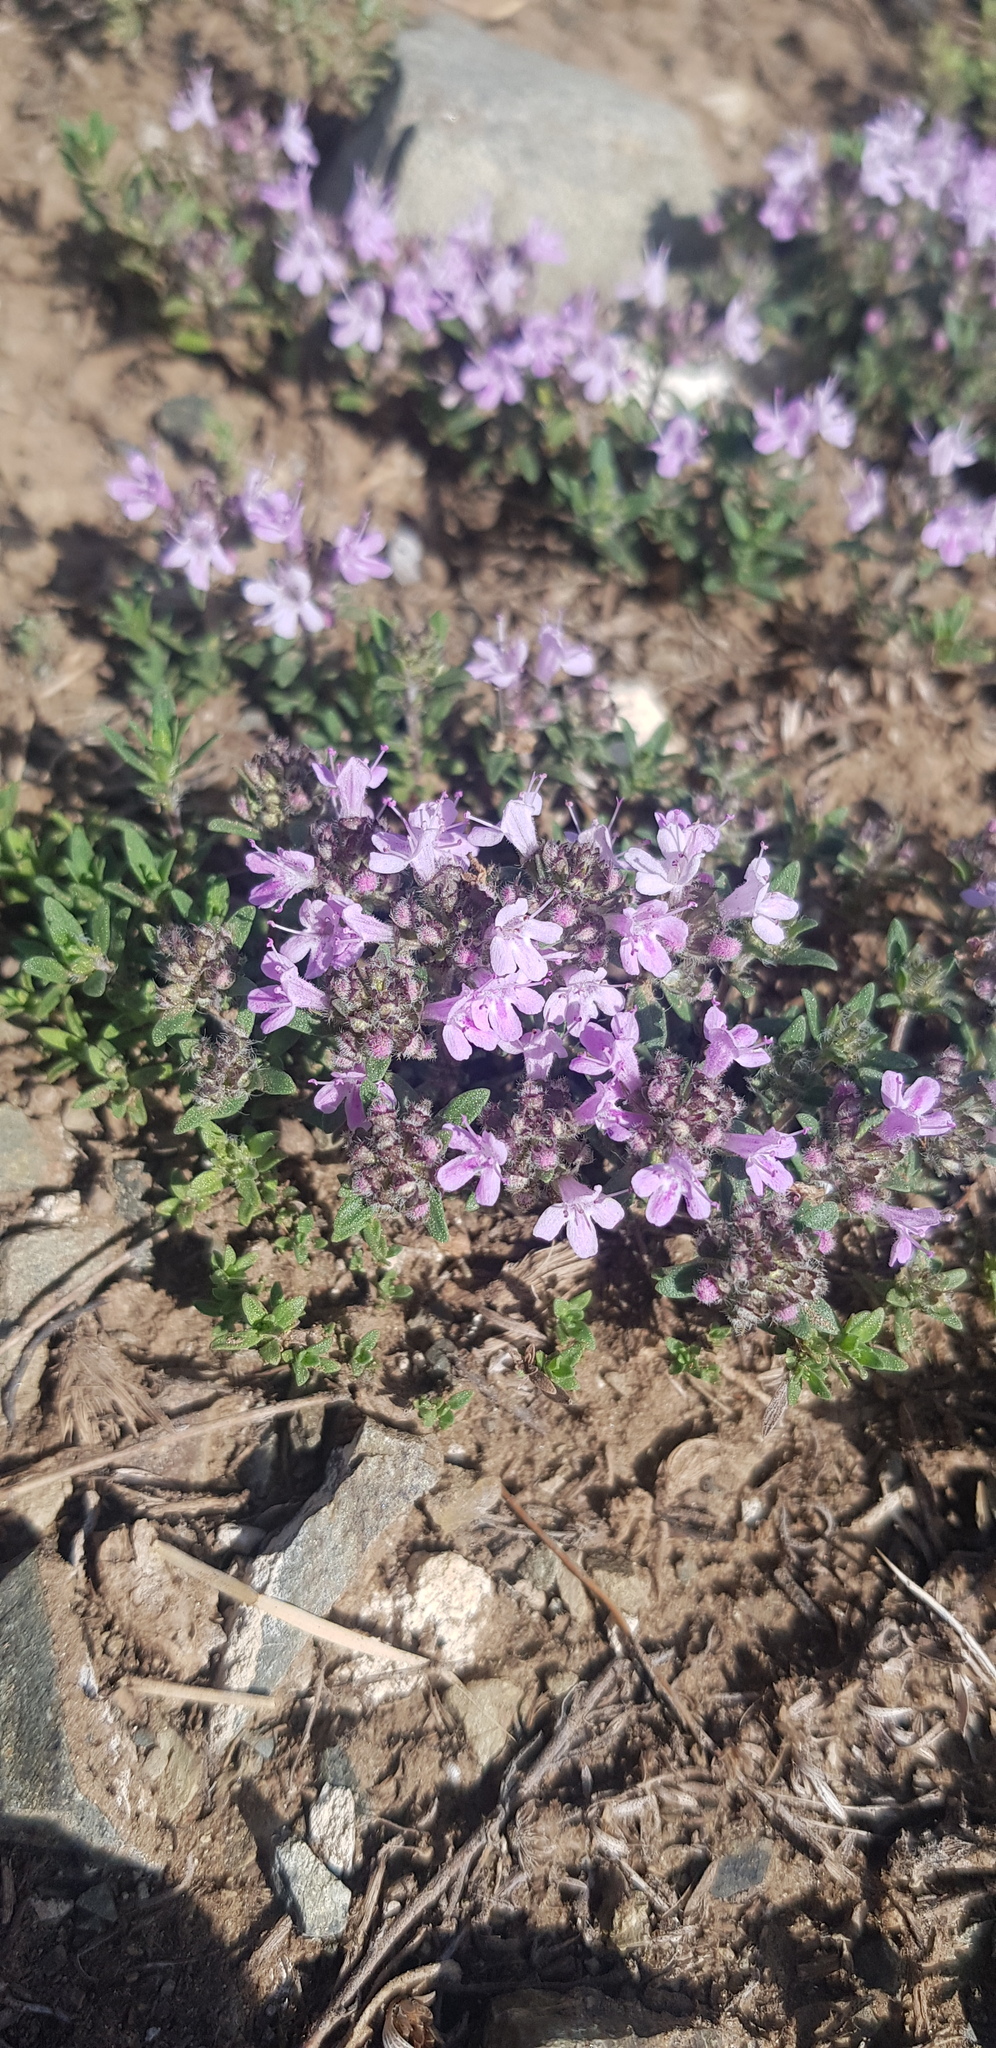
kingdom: Plantae
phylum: Tracheophyta
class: Magnoliopsida
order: Lamiales
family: Lamiaceae
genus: Thymus
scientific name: Thymus dahuricus
